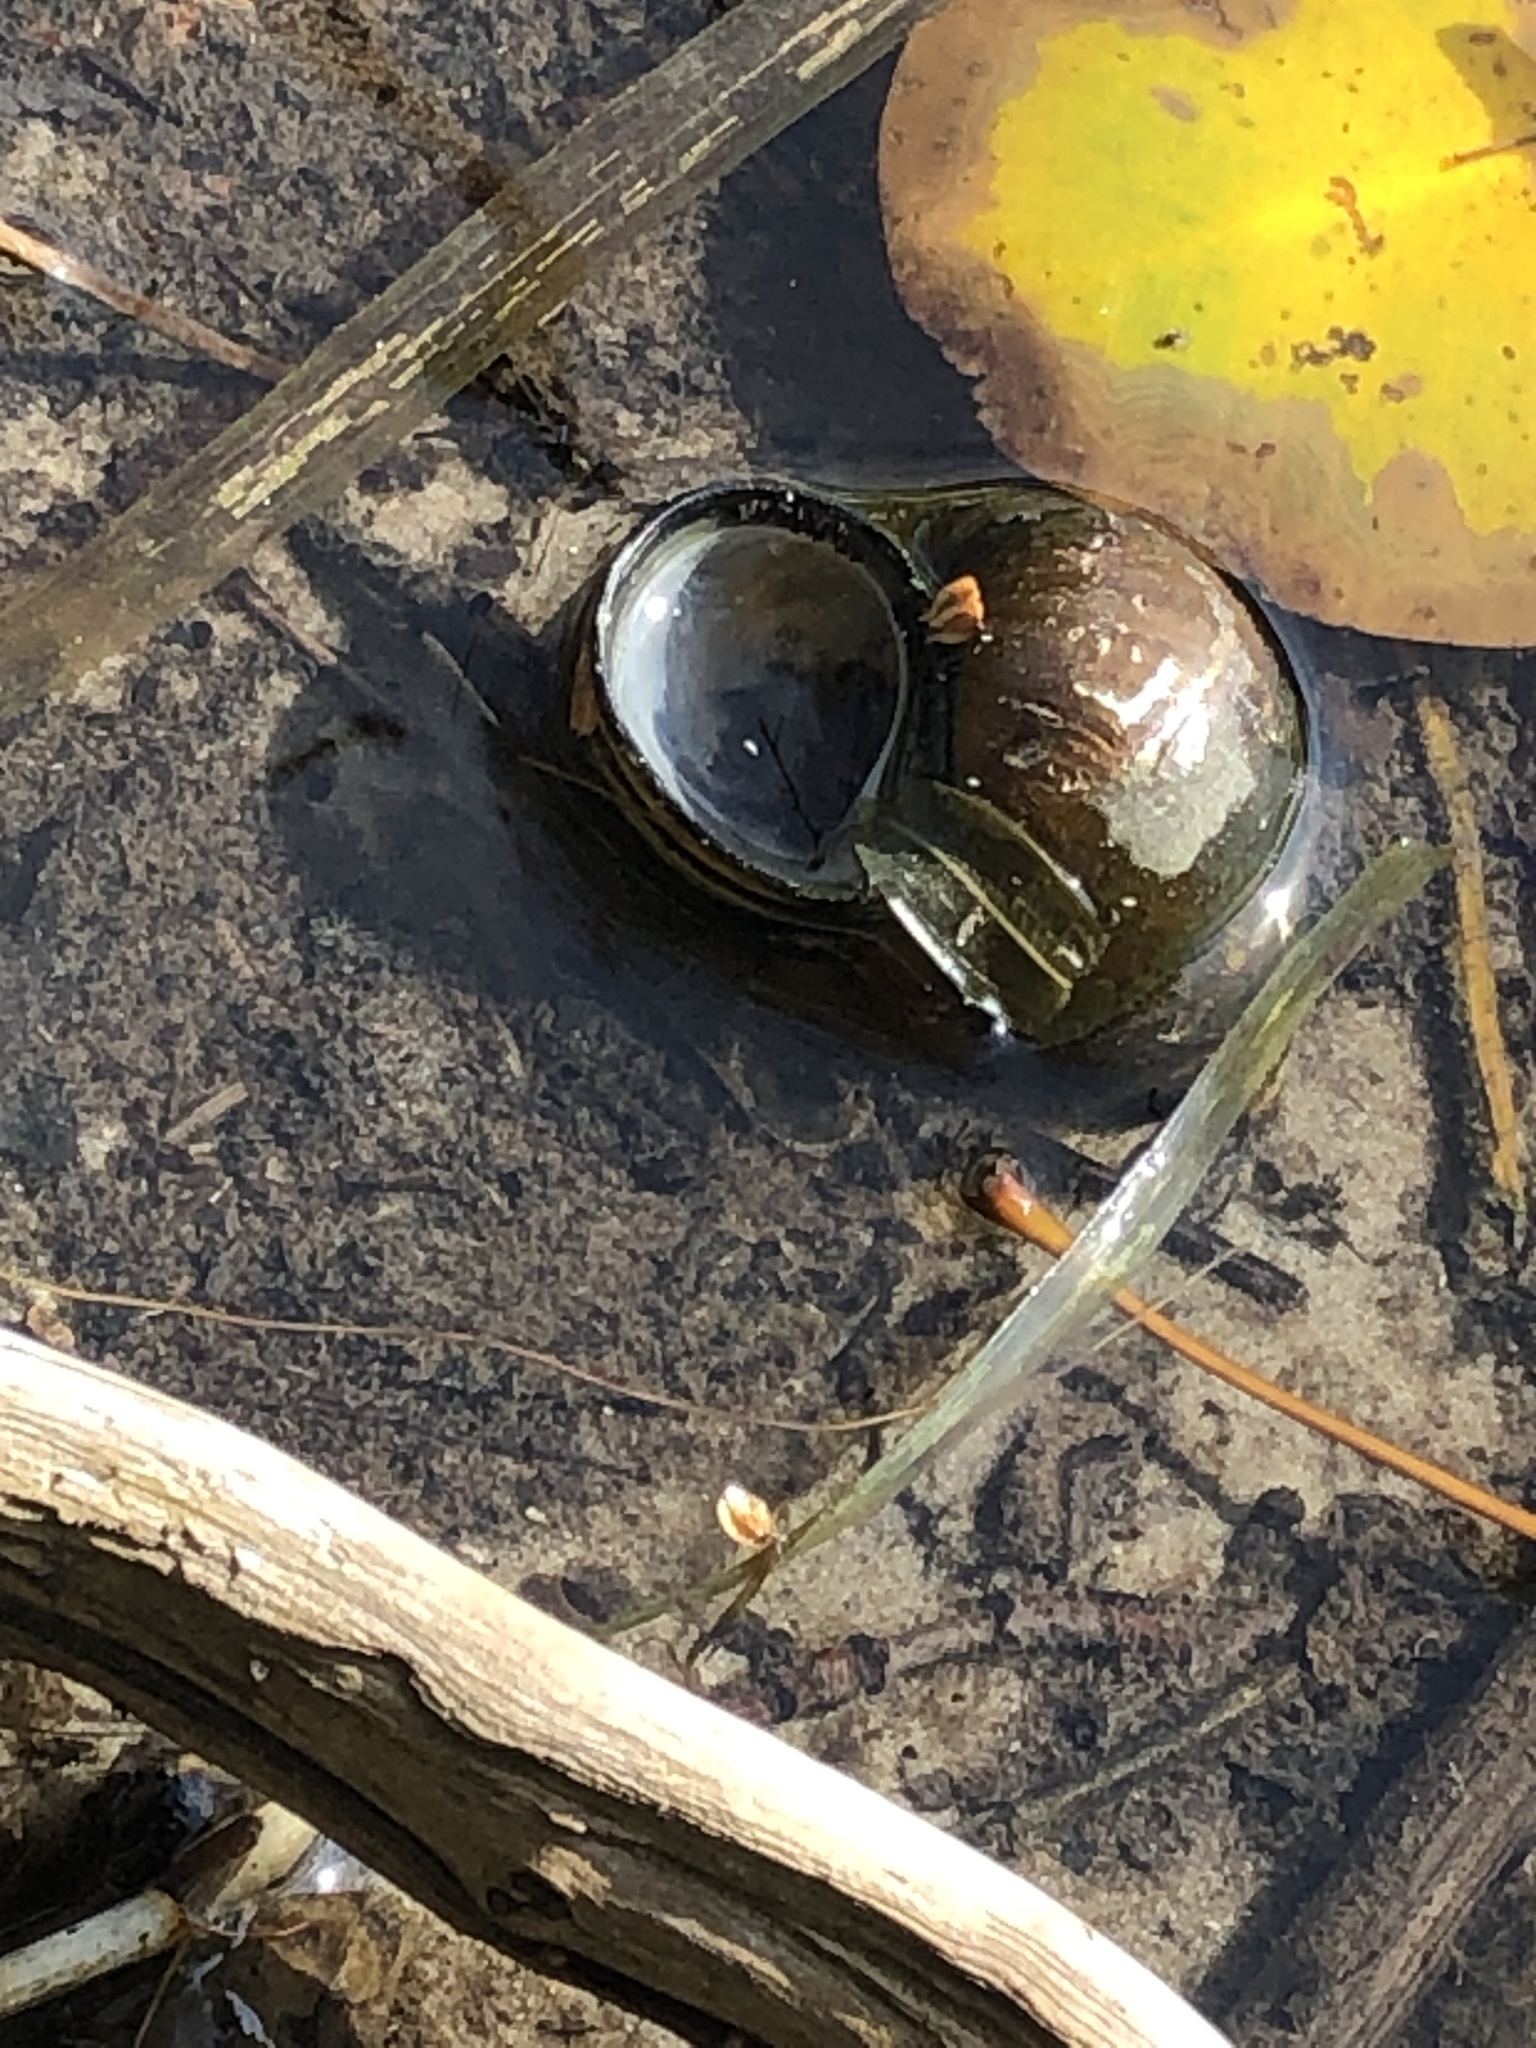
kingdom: Animalia
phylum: Mollusca
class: Gastropoda
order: Architaenioglossa
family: Viviparidae
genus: Cipangopaludina
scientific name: Cipangopaludina chinensis
